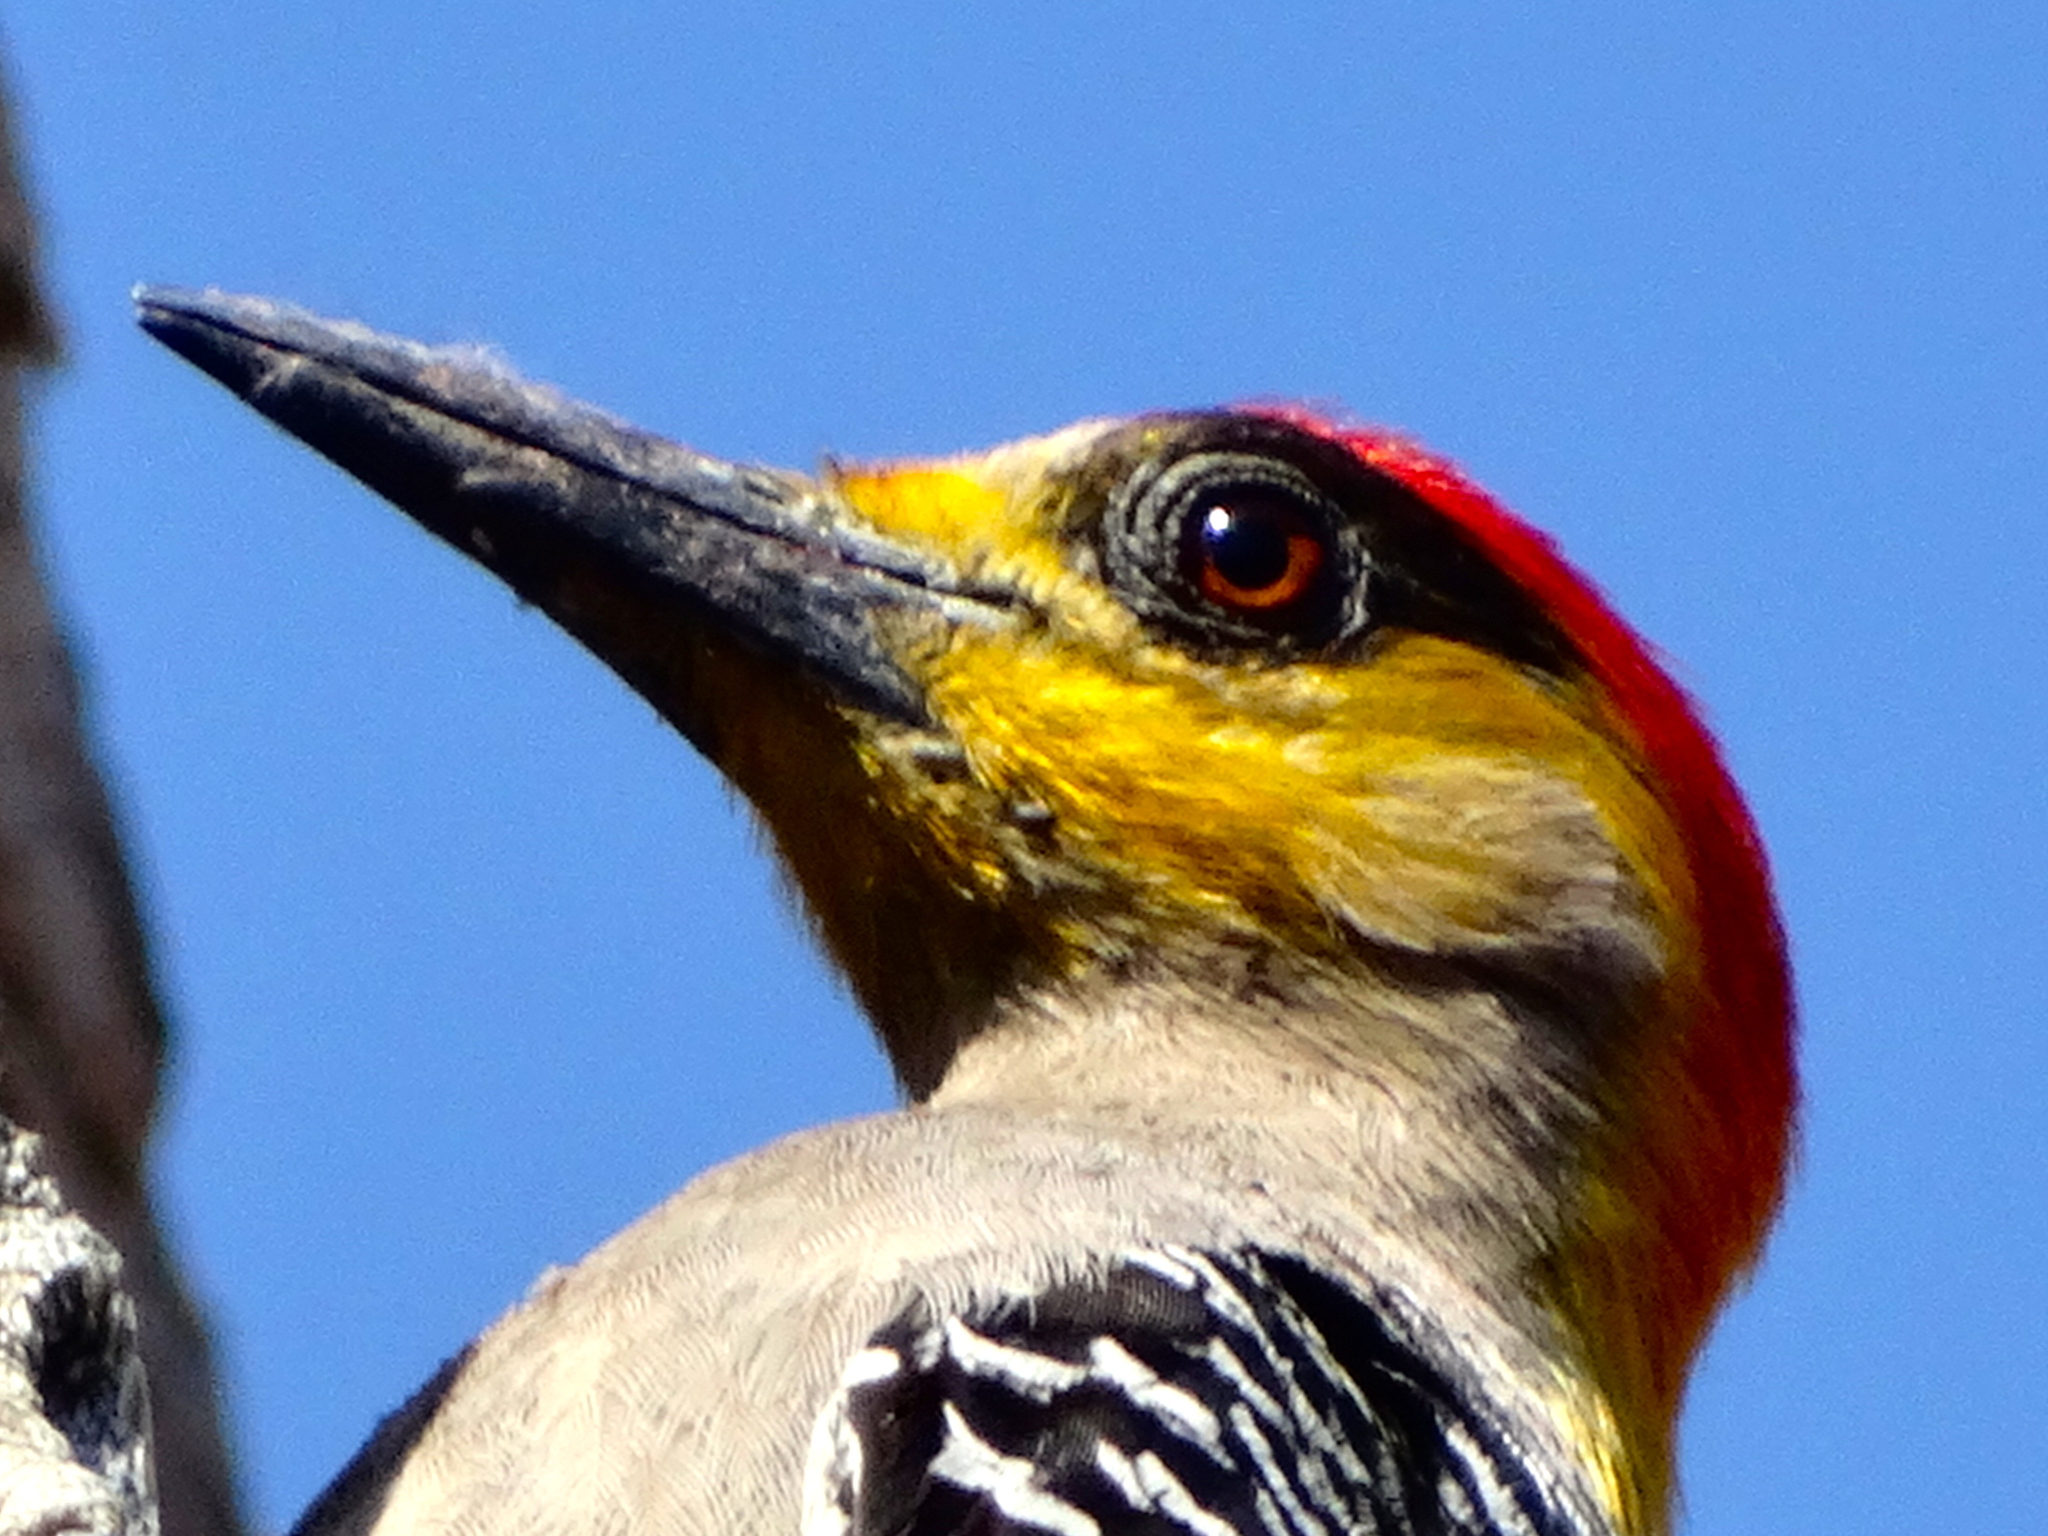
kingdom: Animalia
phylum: Chordata
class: Aves
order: Piciformes
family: Picidae
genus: Melanerpes
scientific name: Melanerpes chrysogenys
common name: Golden-cheeked woodpecker
